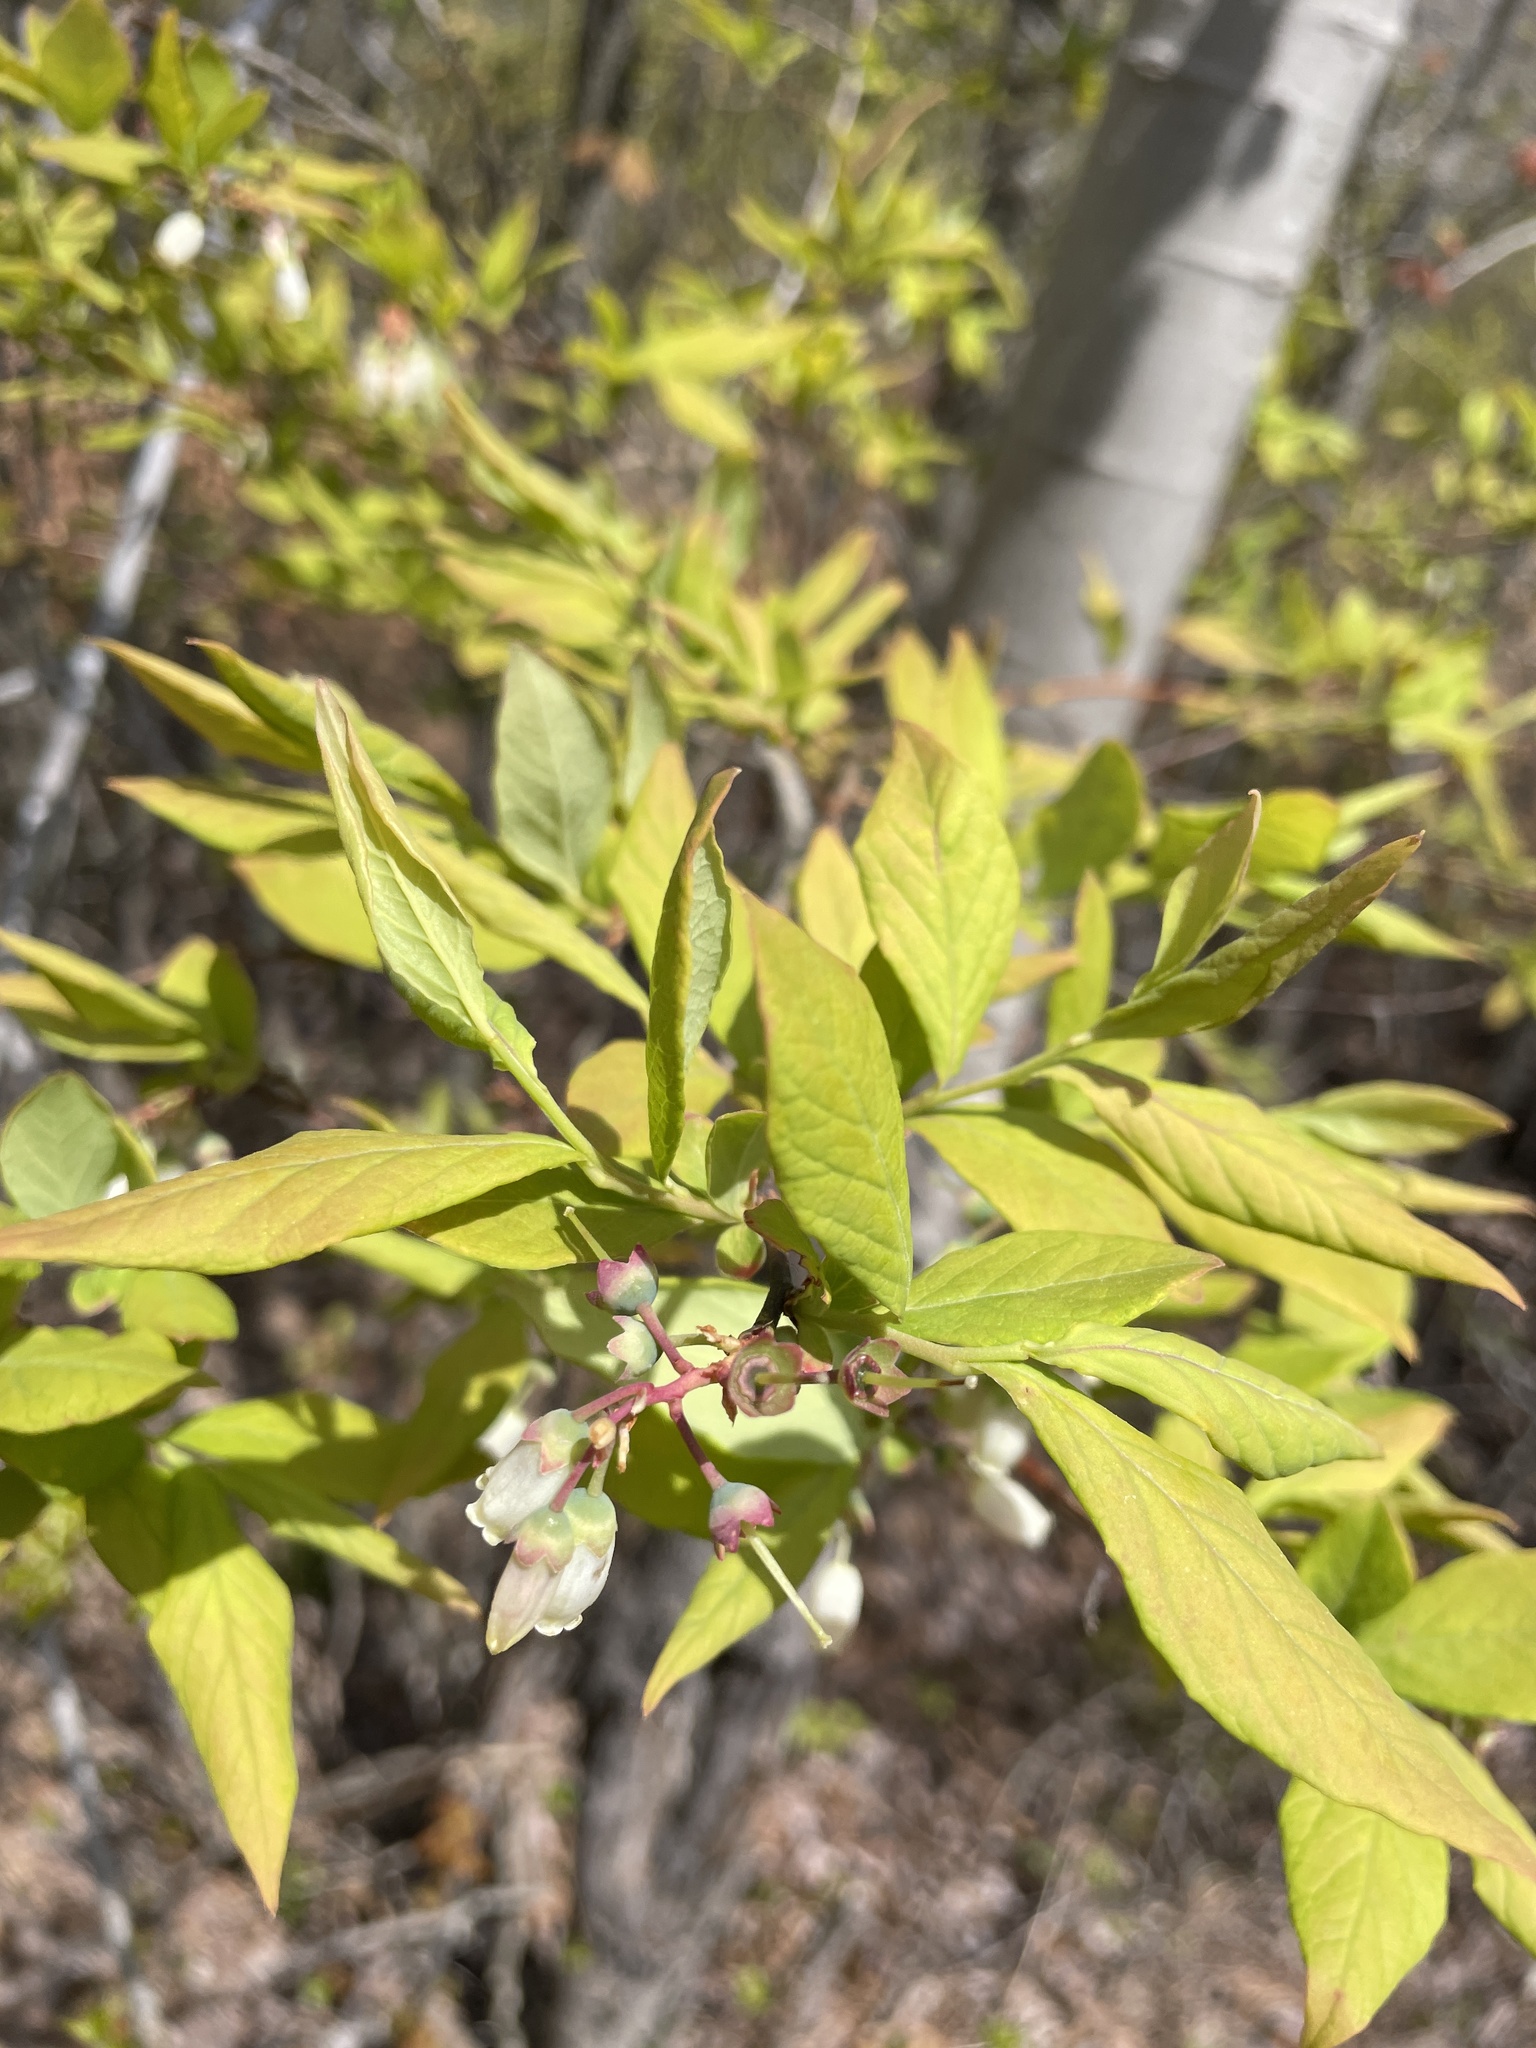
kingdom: Plantae
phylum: Tracheophyta
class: Magnoliopsida
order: Ericales
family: Ericaceae
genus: Vaccinium
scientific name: Vaccinium corymbosum
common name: Blueberry
